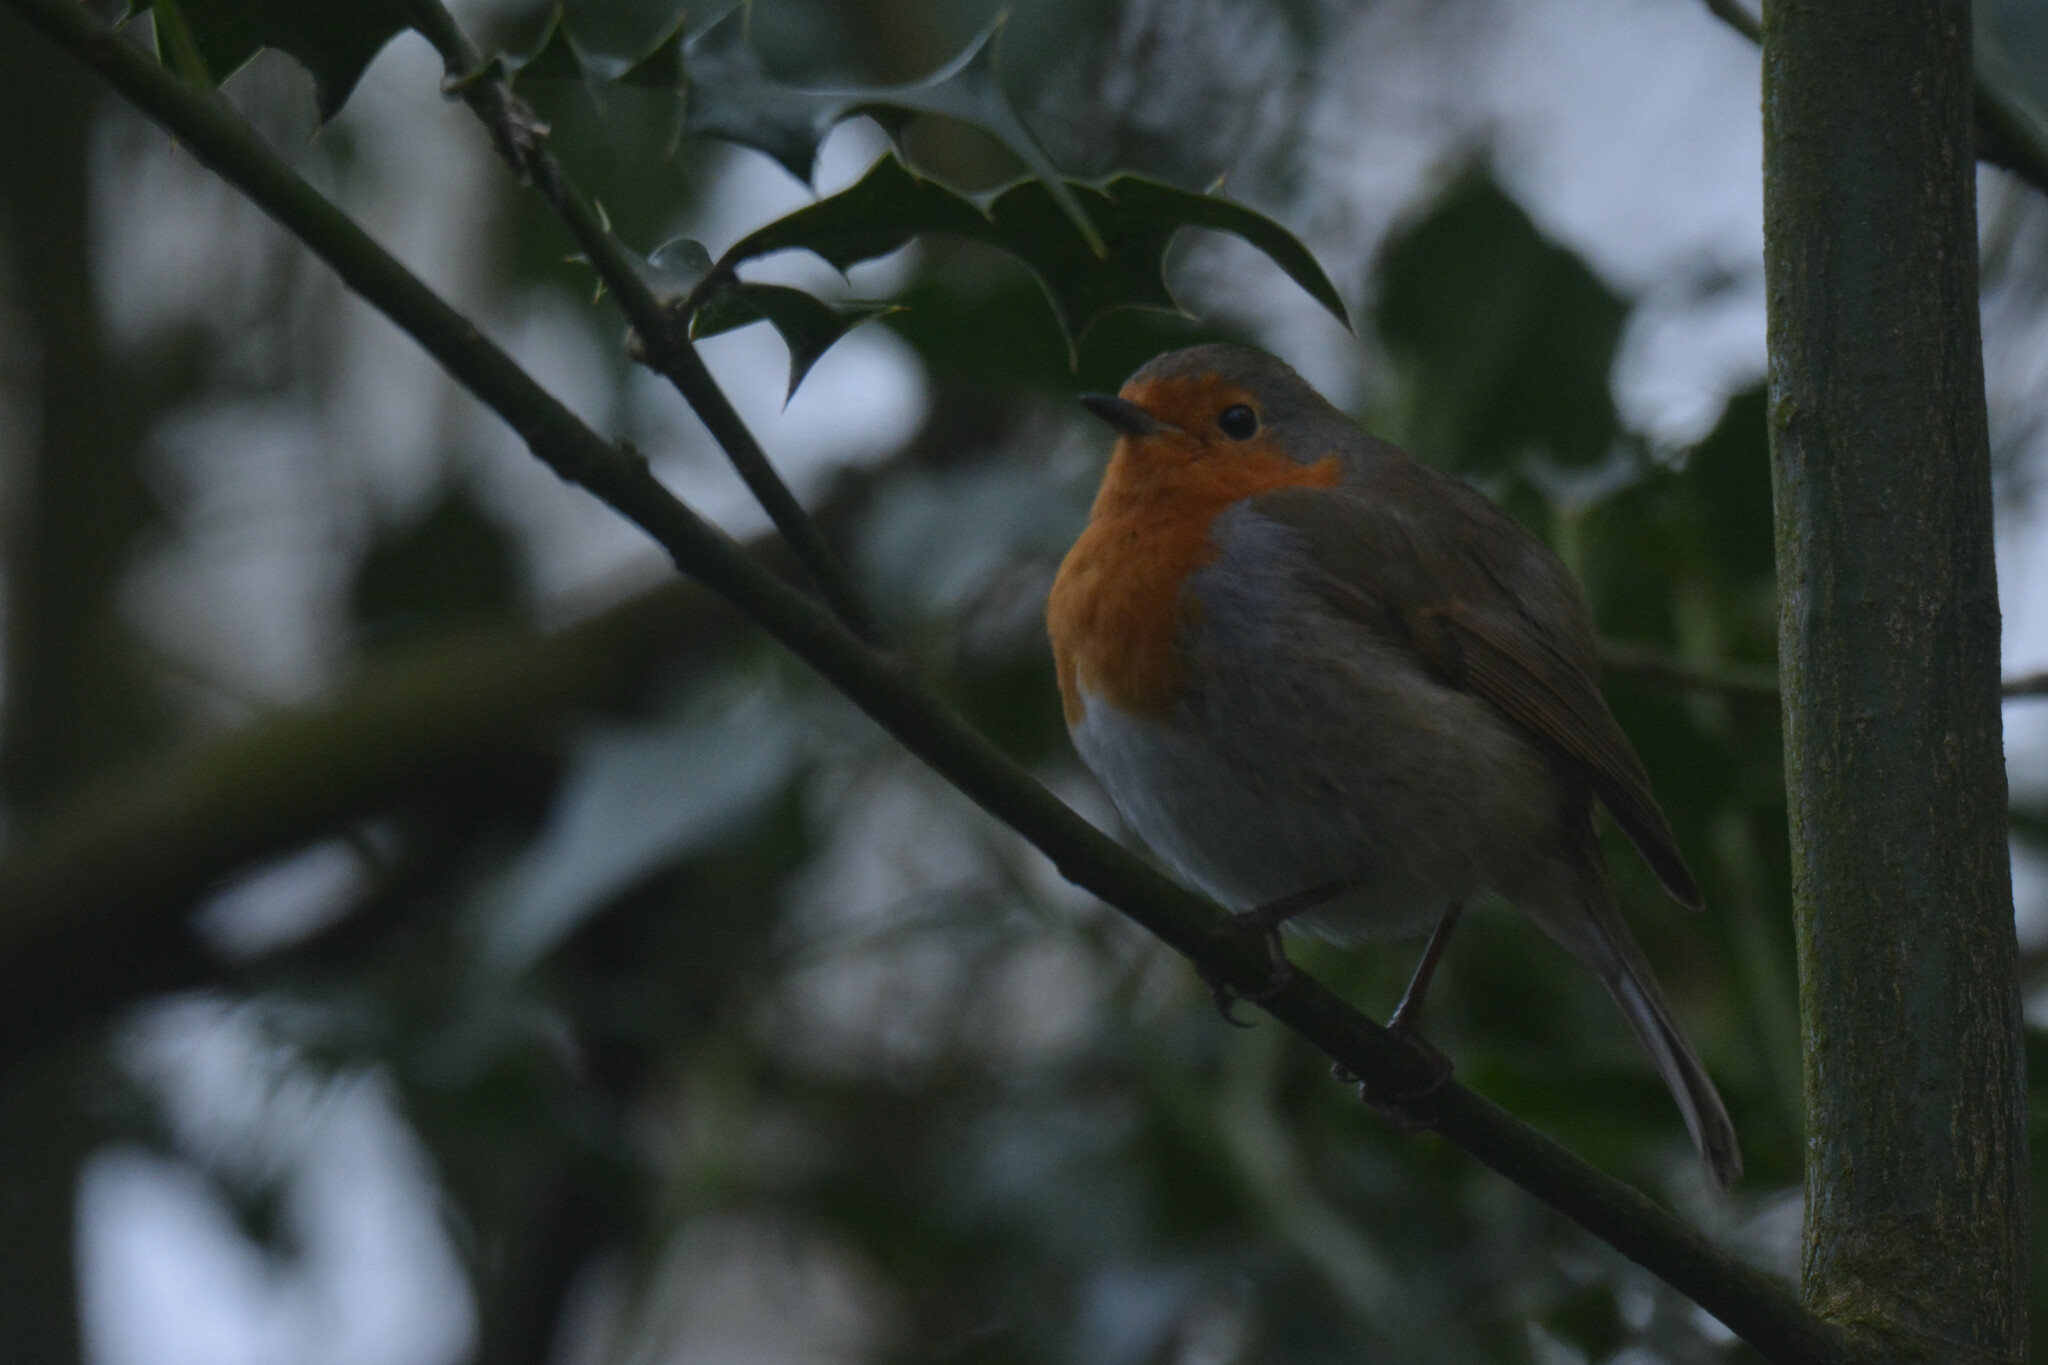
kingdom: Animalia
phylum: Chordata
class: Aves
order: Passeriformes
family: Muscicapidae
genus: Erithacus
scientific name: Erithacus rubecula
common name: European robin
